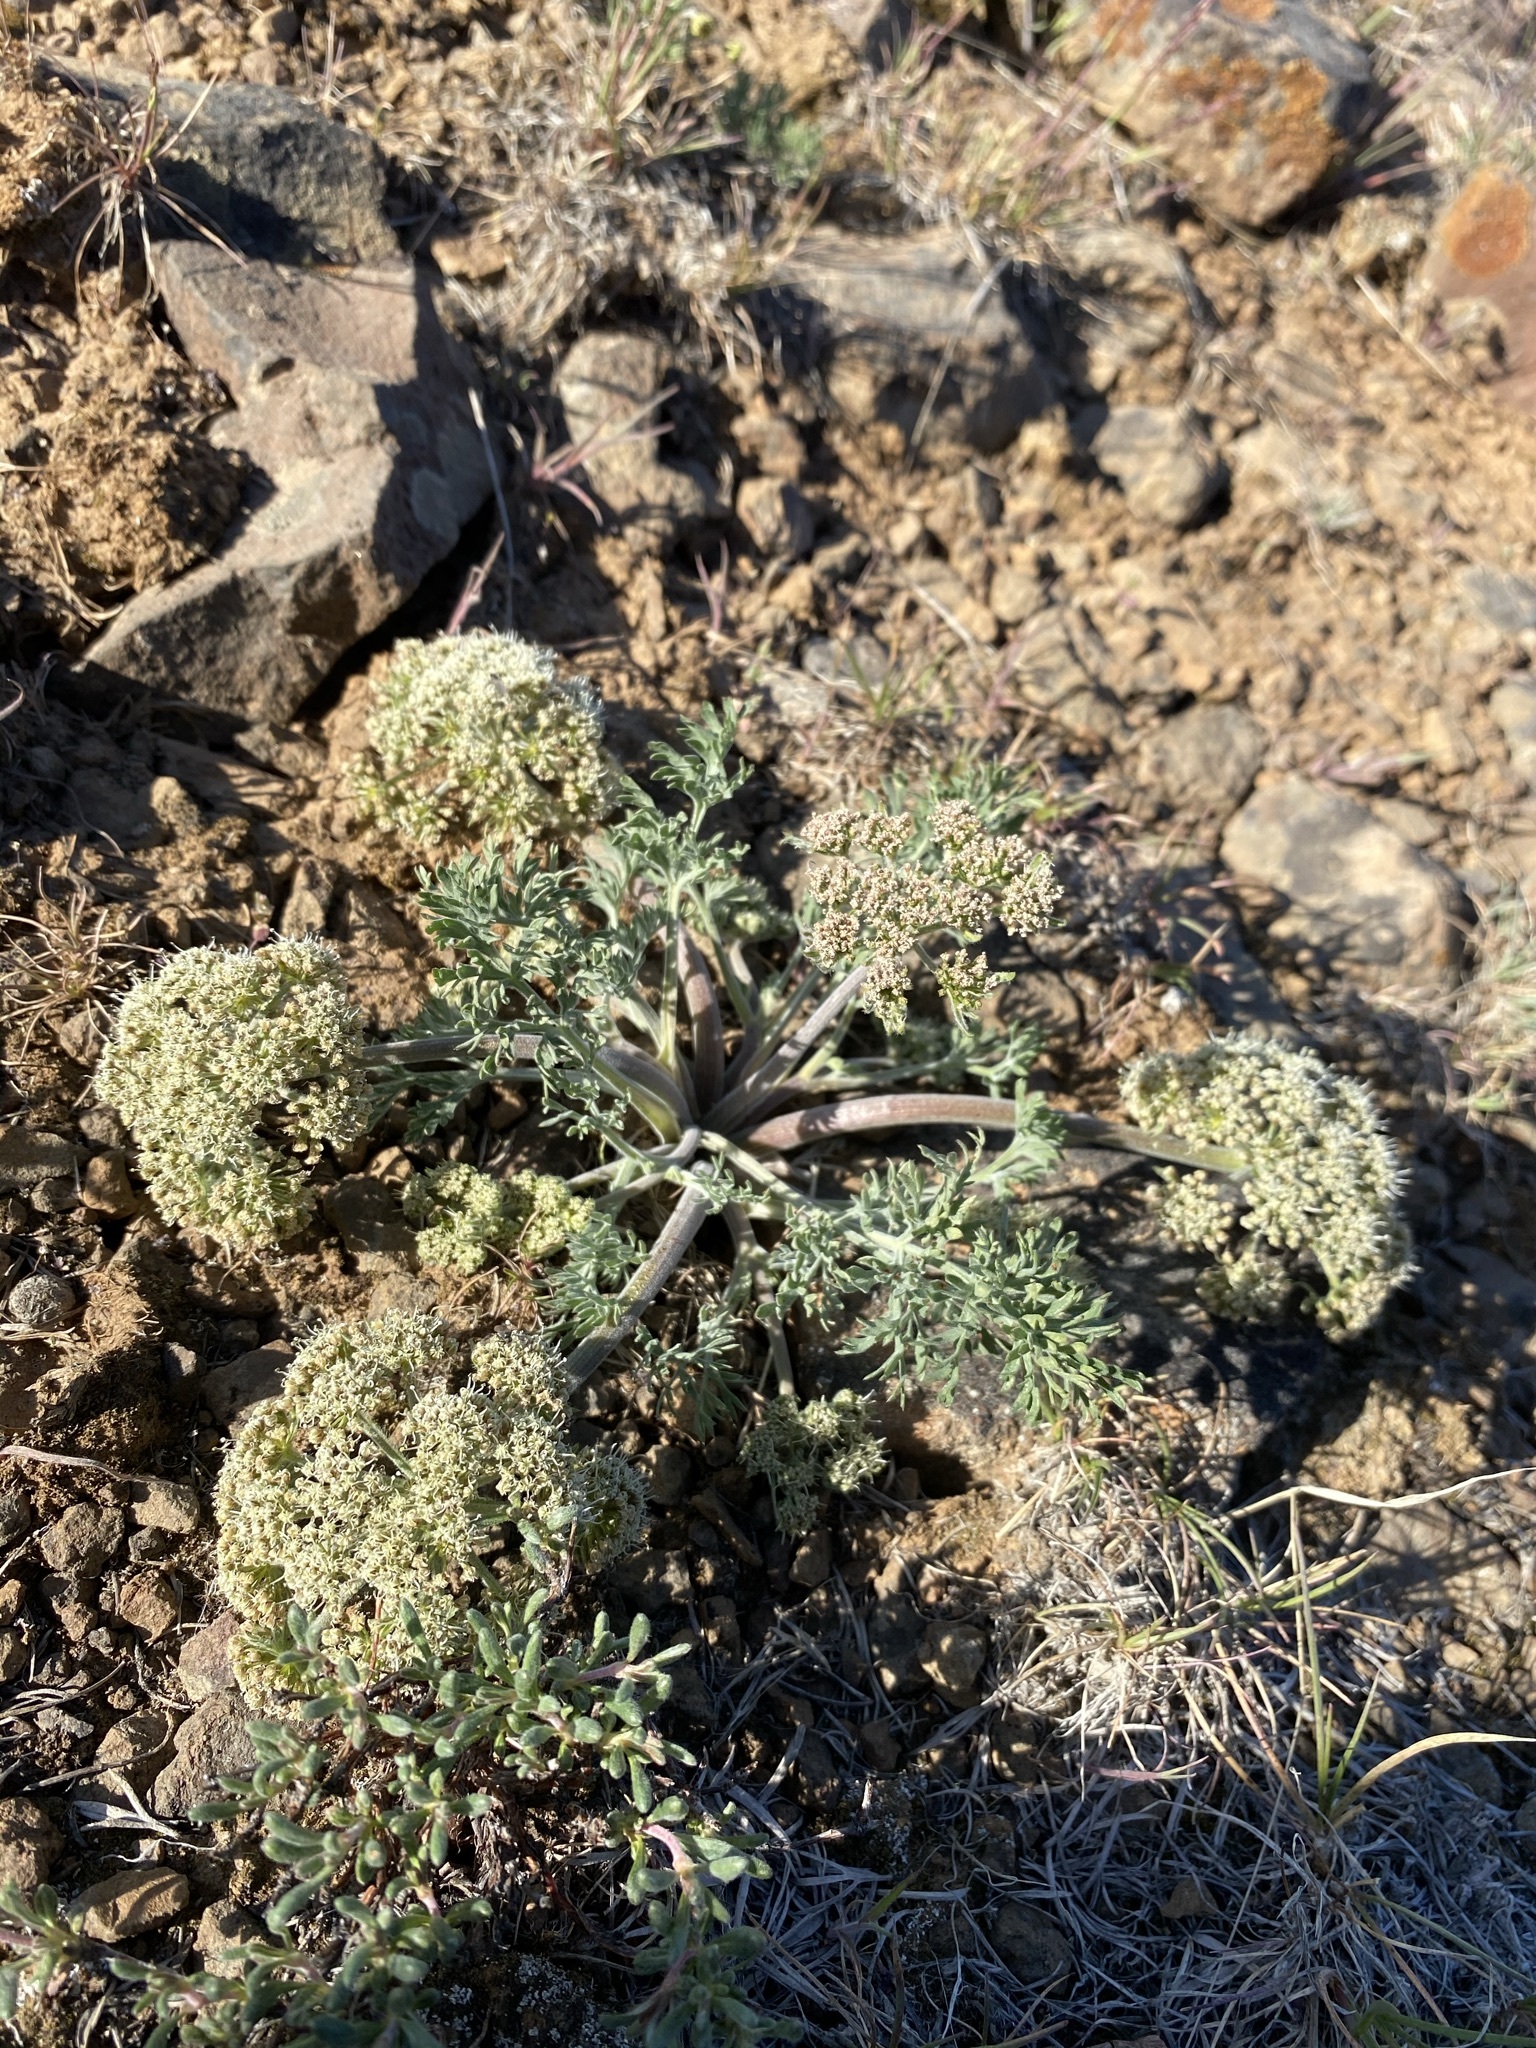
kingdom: Plantae
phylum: Tracheophyta
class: Magnoliopsida
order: Apiales
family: Apiaceae
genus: Lomatium
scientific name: Lomatium macrocarpum
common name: Big-seed biscuitroot
